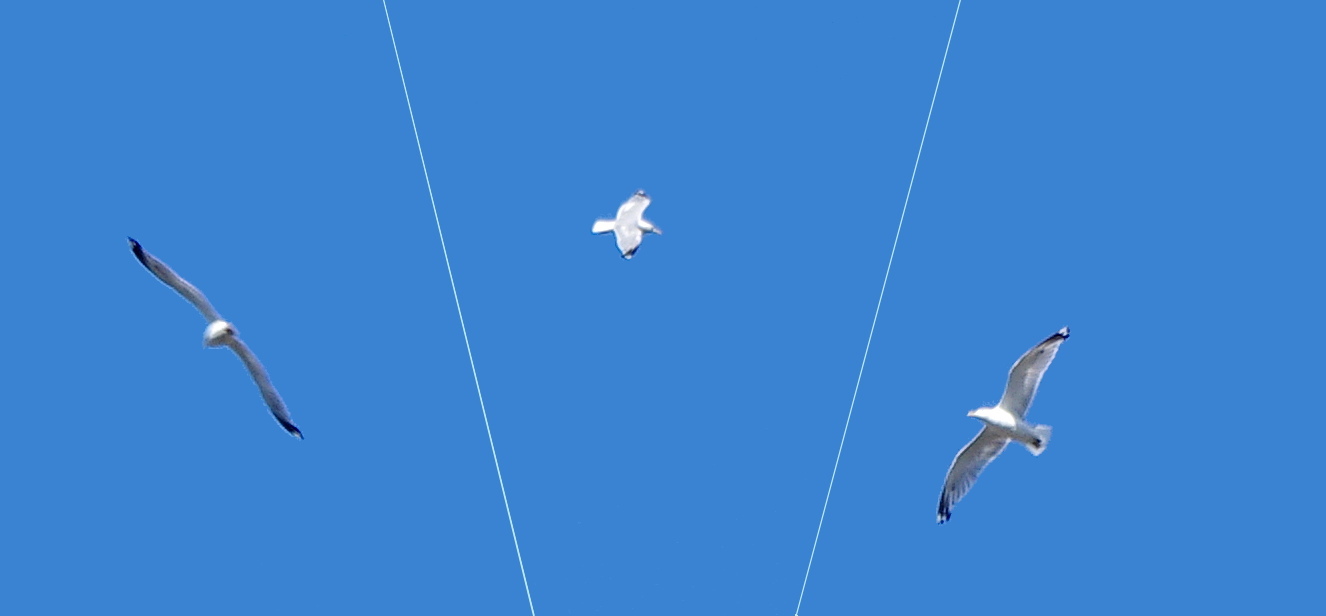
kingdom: Animalia
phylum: Chordata
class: Aves
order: Charadriiformes
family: Laridae
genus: Larus
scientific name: Larus argentatus
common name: Herring gull
